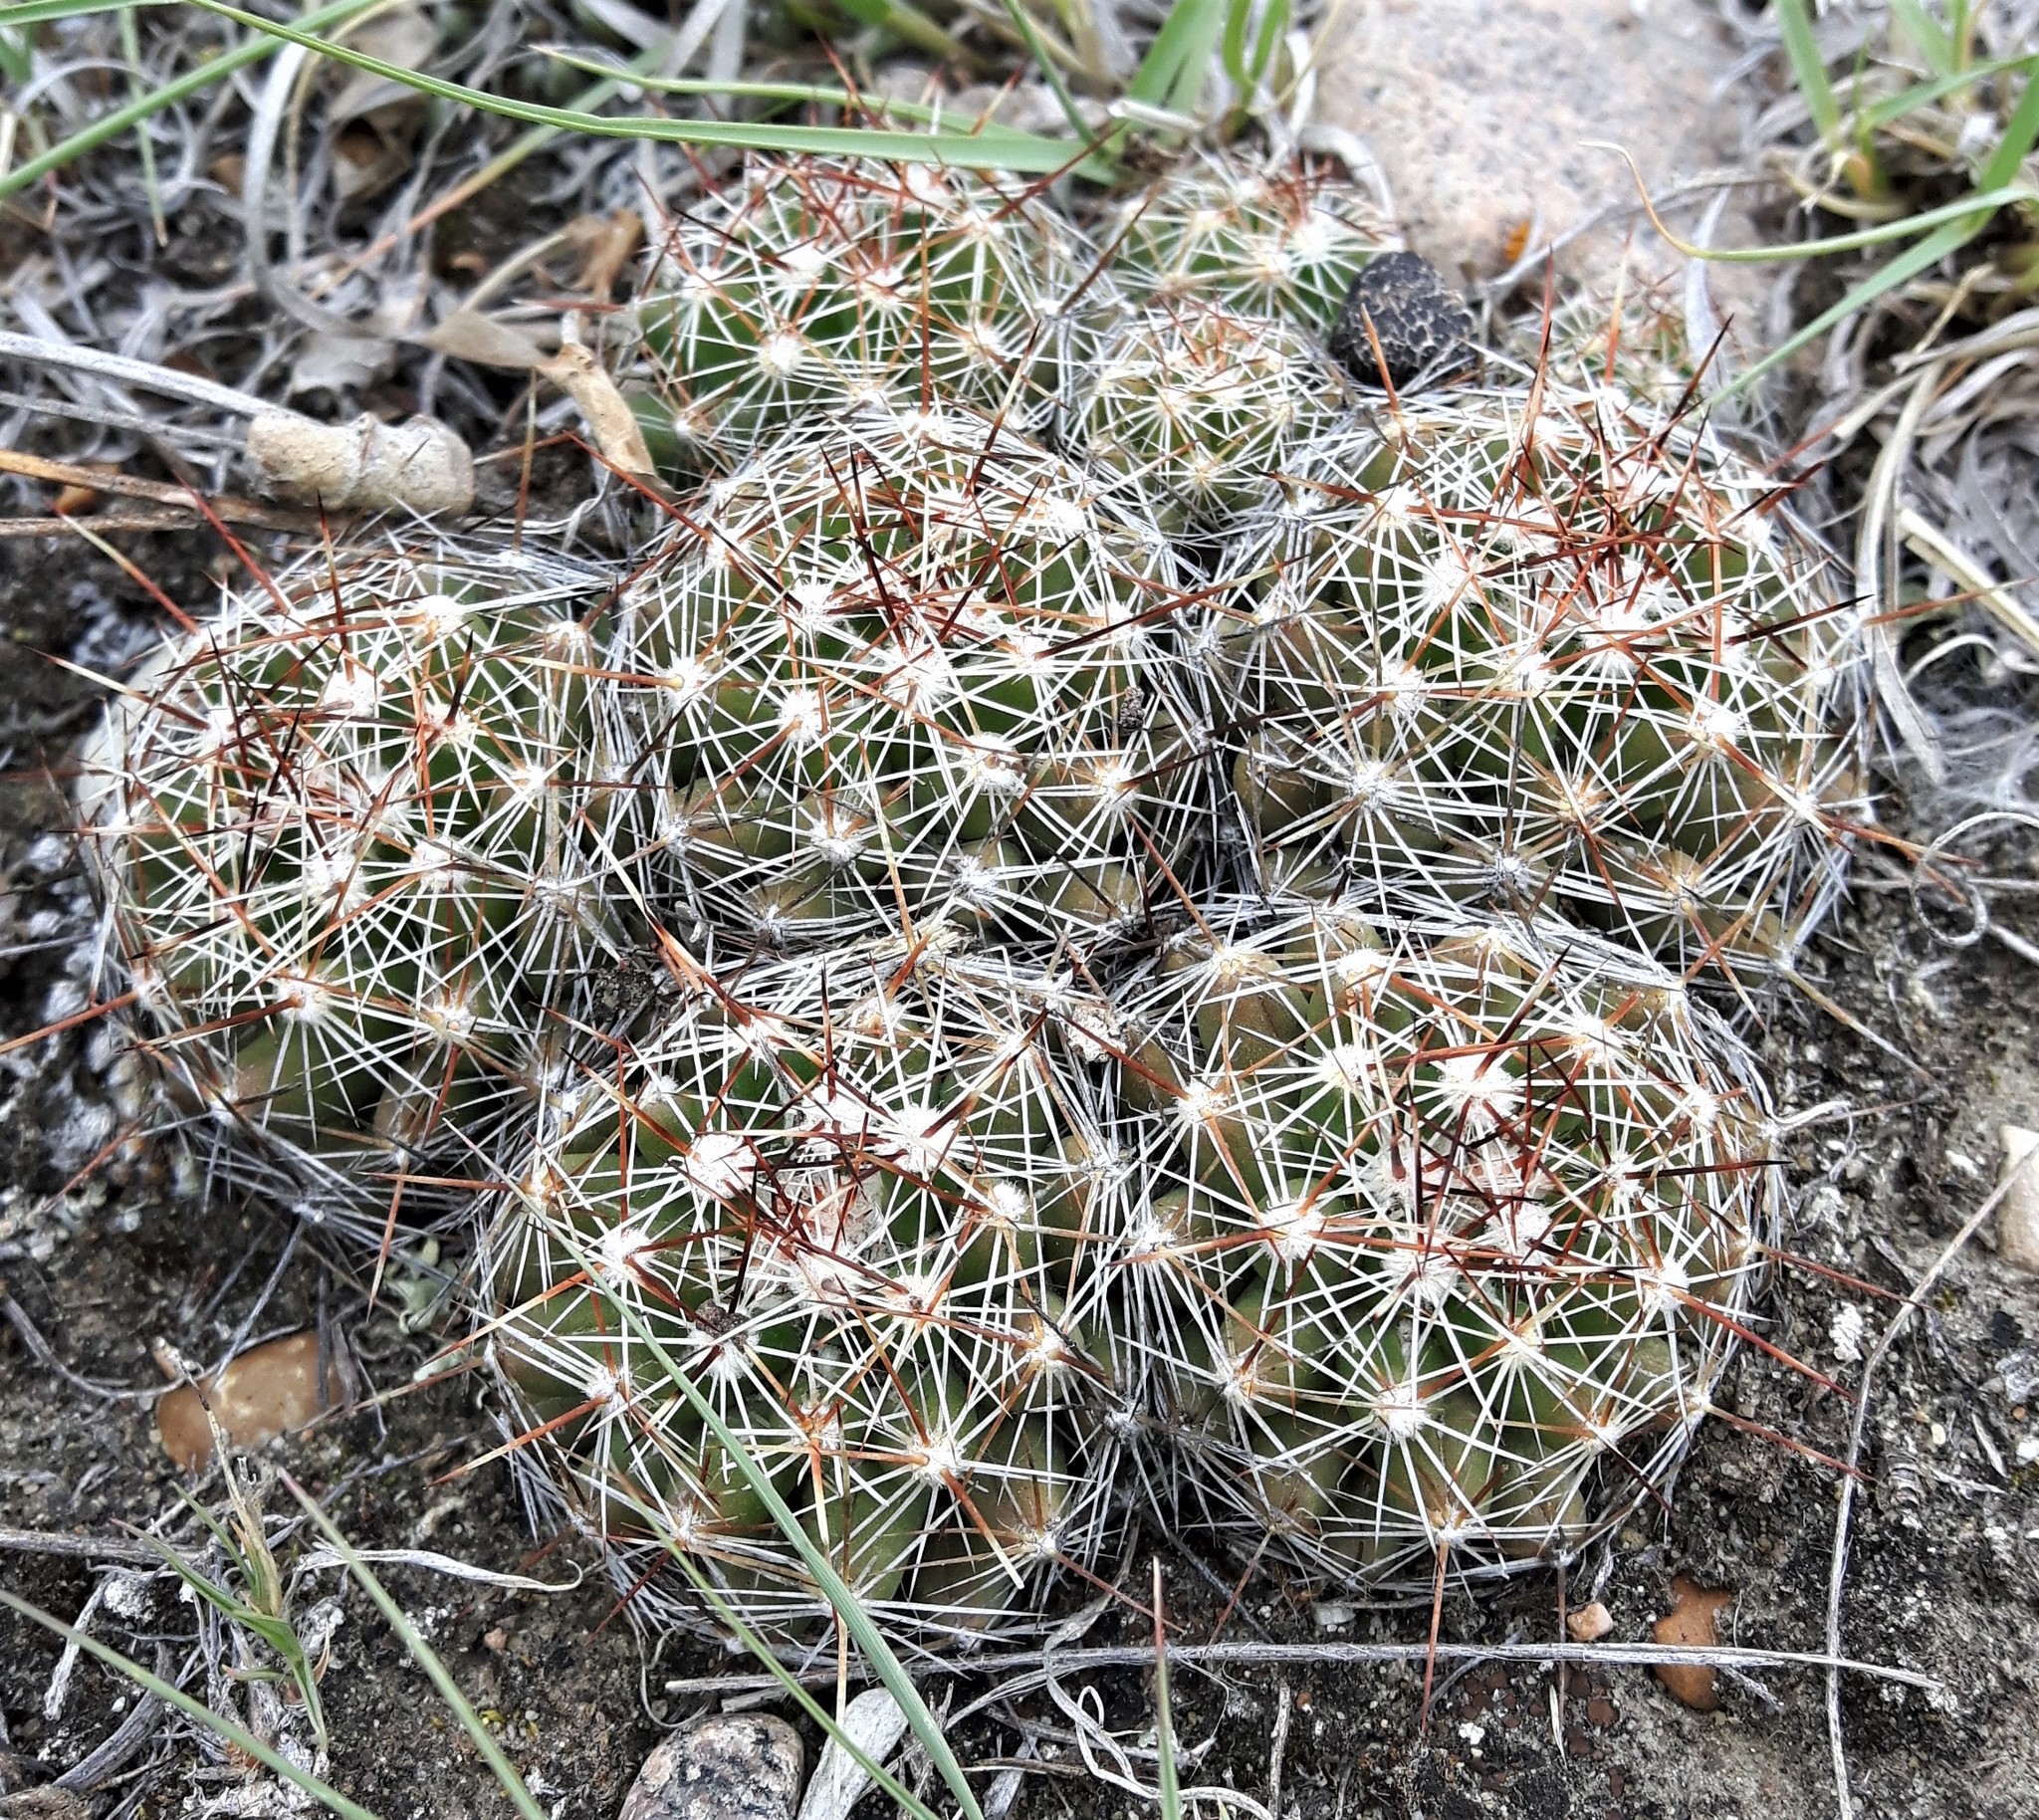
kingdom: Plantae
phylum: Tracheophyta
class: Magnoliopsida
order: Caryophyllales
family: Cactaceae
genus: Pelecyphora
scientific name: Pelecyphora vivipara
